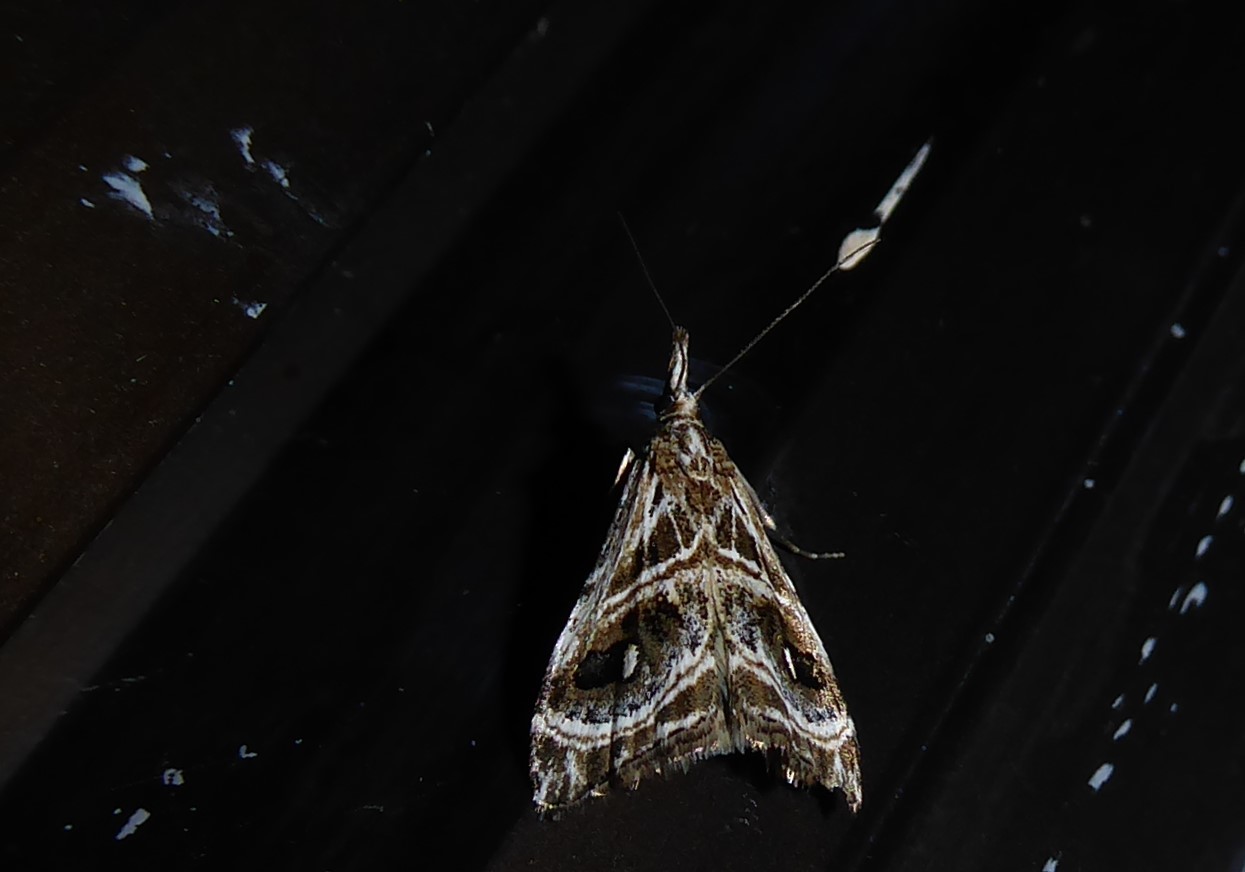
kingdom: Animalia
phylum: Arthropoda
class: Insecta
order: Lepidoptera
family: Crambidae
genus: Gadira
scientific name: Gadira acerella
